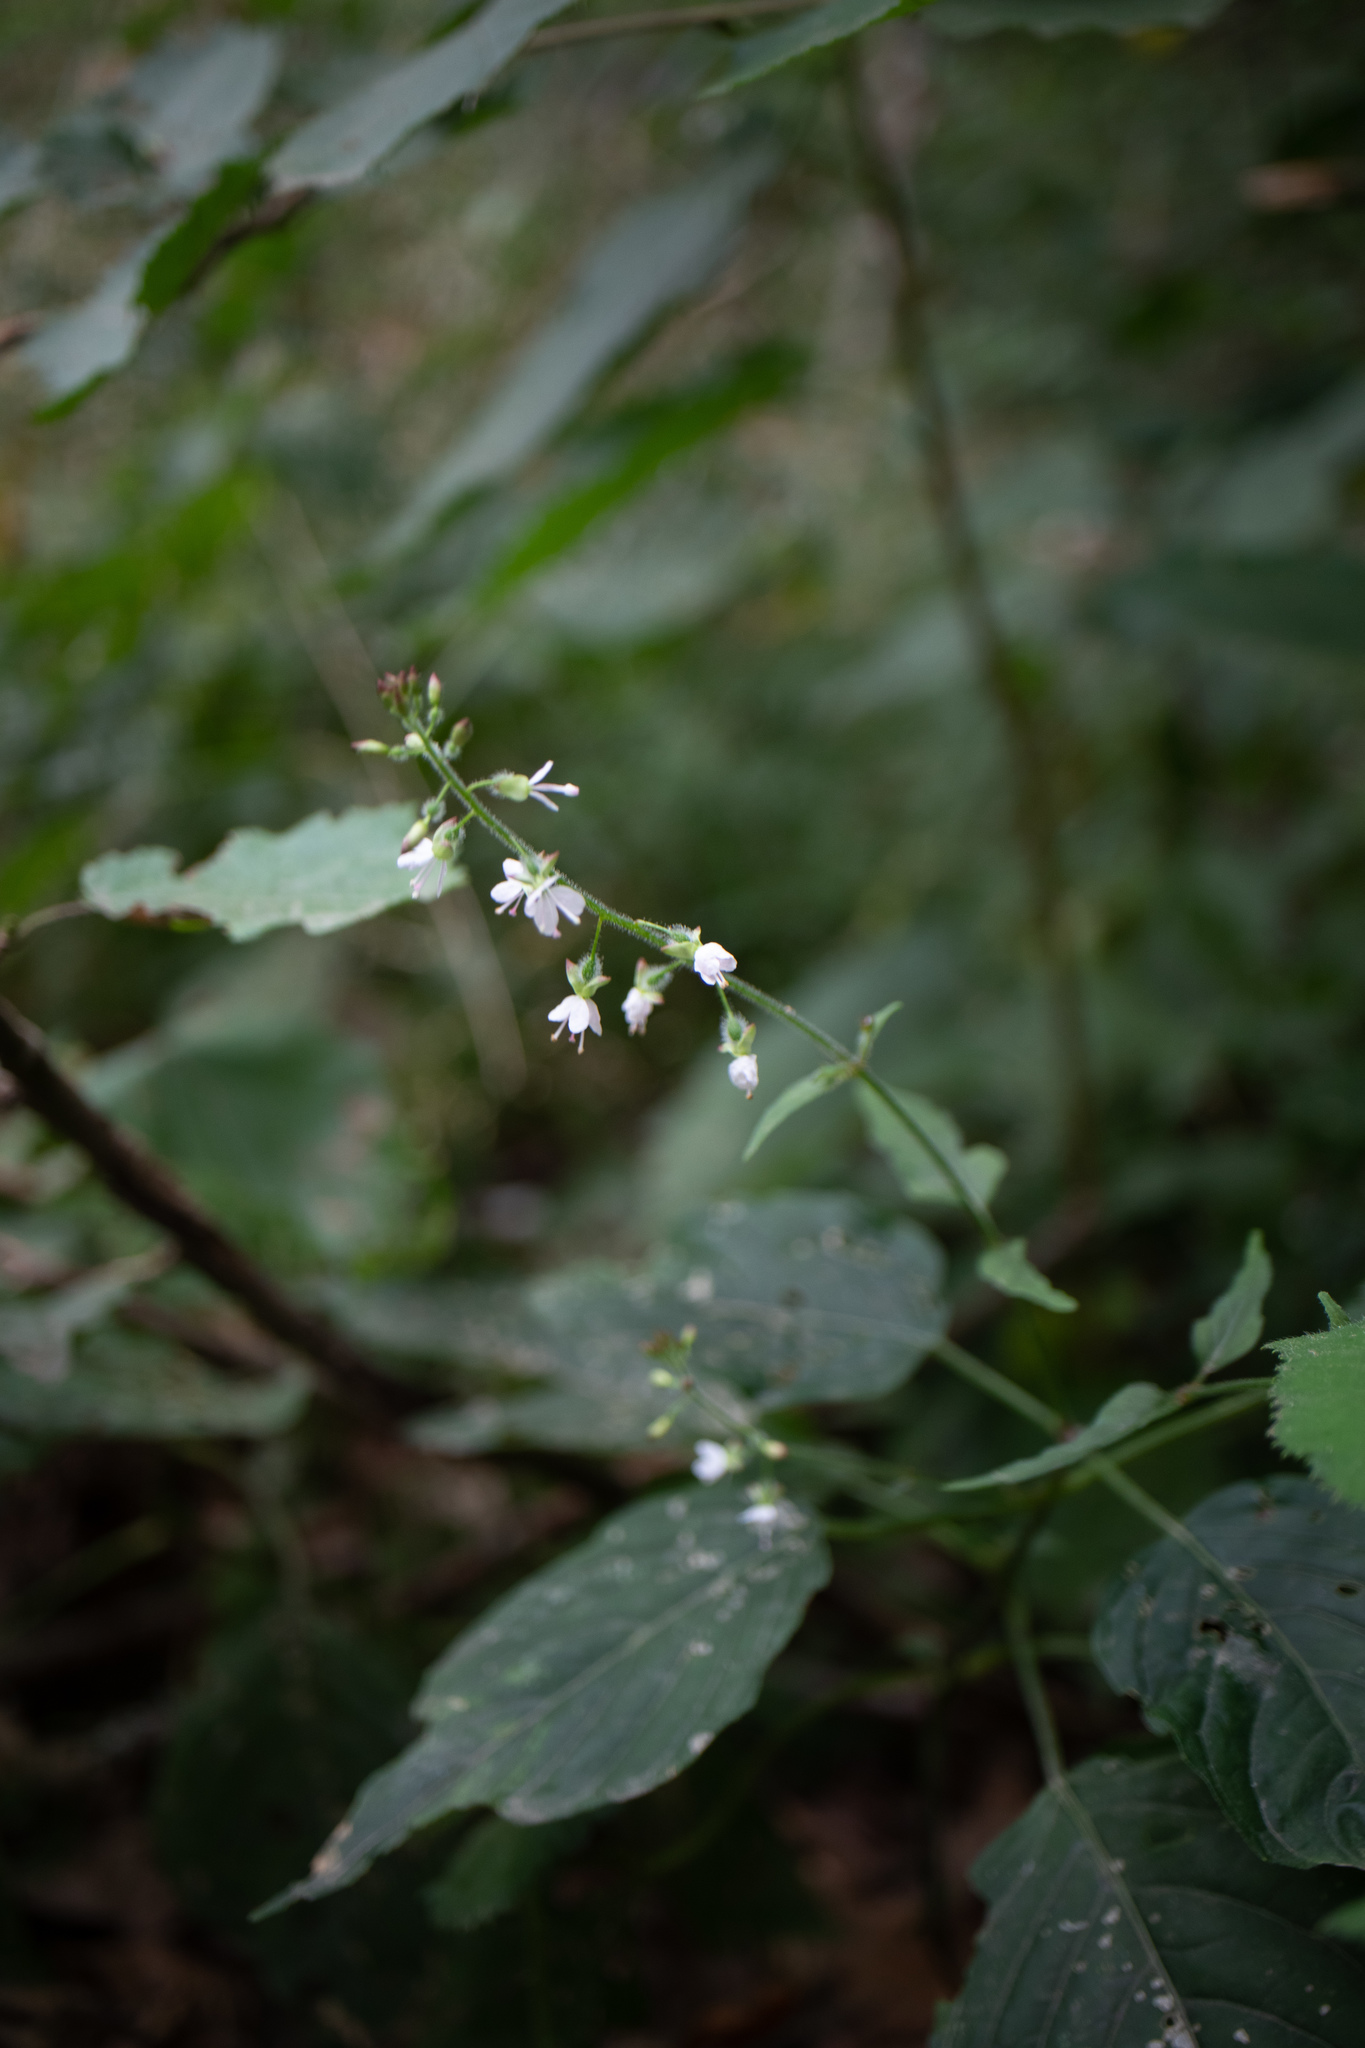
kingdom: Plantae
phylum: Tracheophyta
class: Magnoliopsida
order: Myrtales
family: Onagraceae
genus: Circaea
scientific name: Circaea lutetiana
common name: Enchanter's-nightshade
